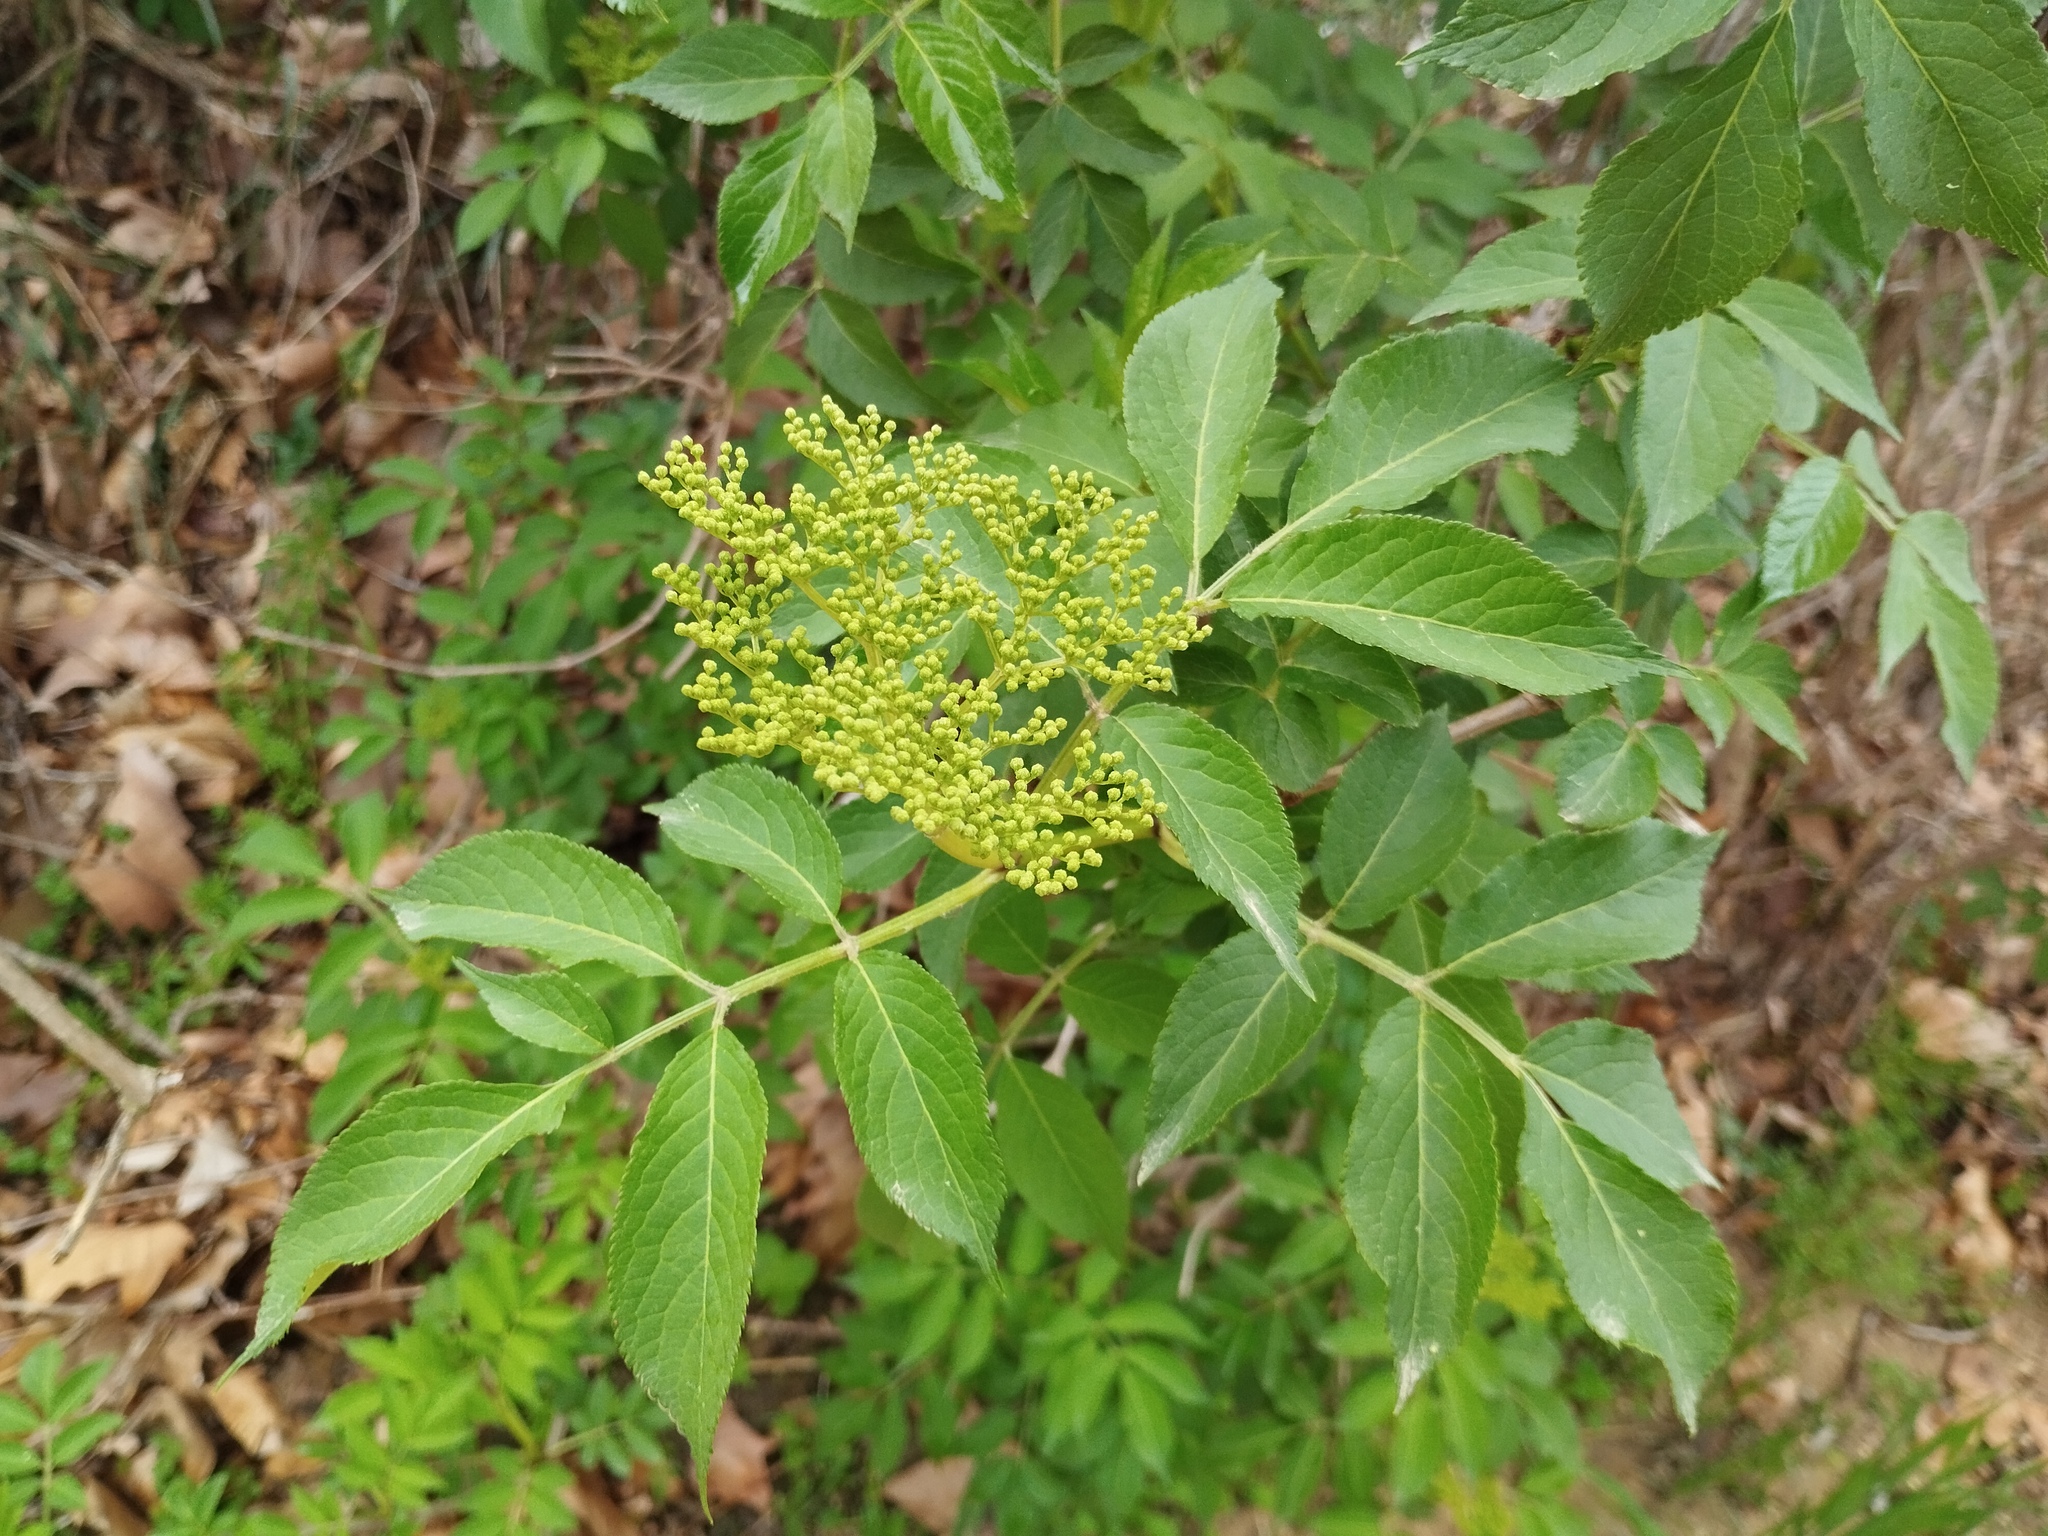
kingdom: Plantae
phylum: Tracheophyta
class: Magnoliopsida
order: Dipsacales
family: Viburnaceae
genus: Sambucus
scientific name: Sambucus nigra
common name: Elder
